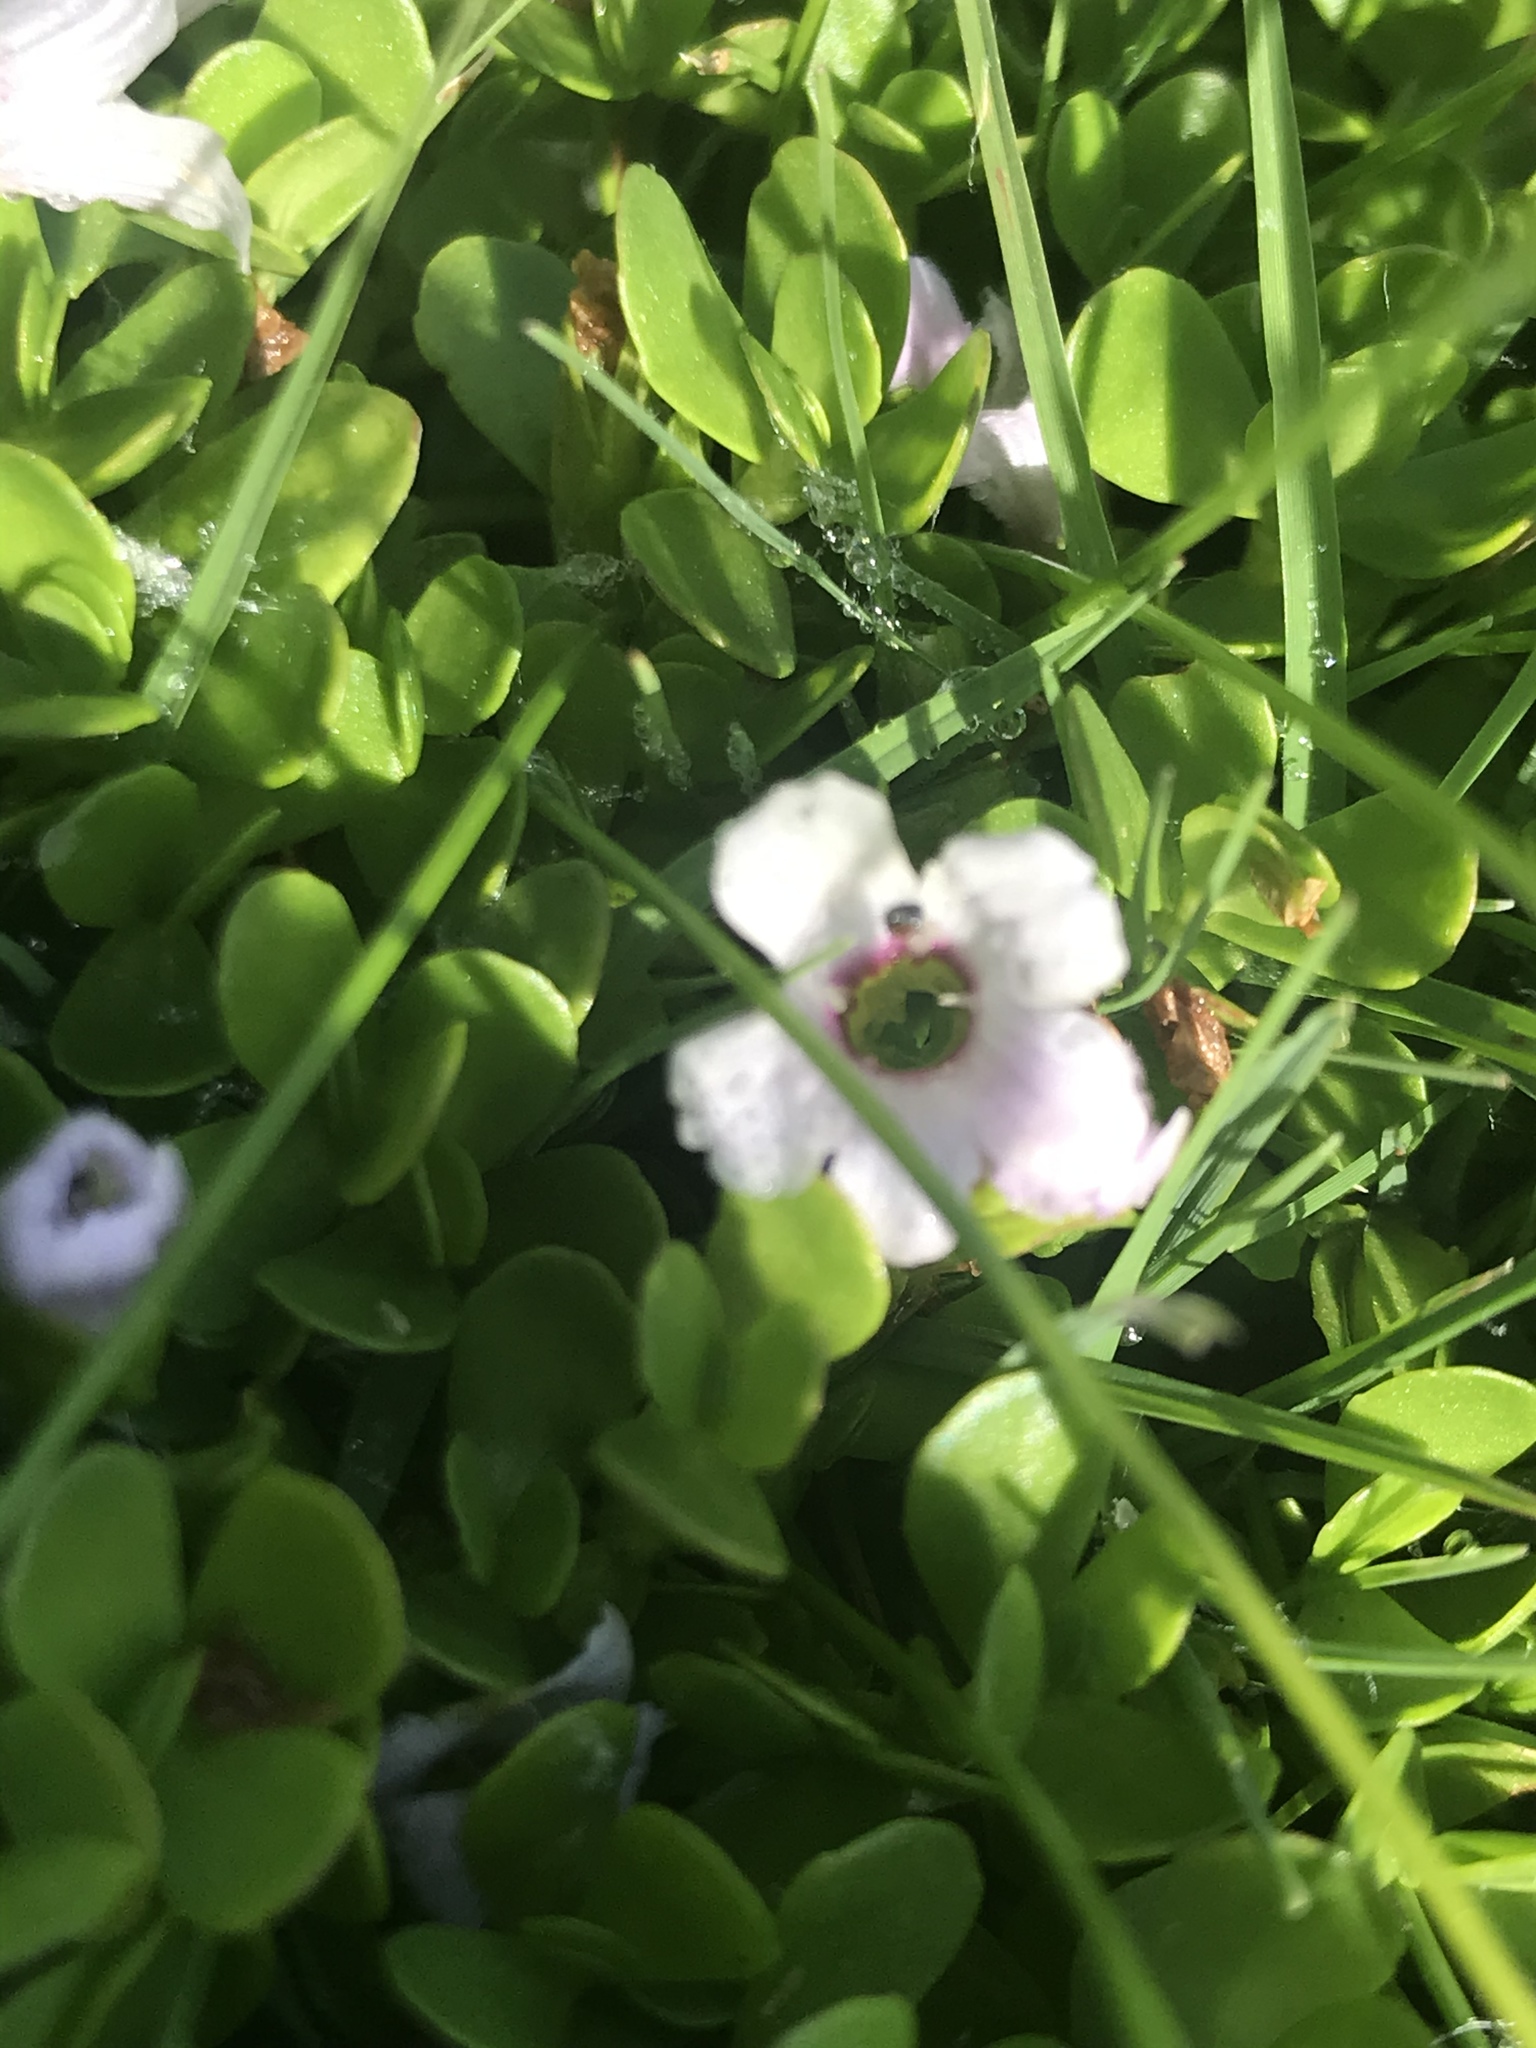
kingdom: Plantae
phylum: Tracheophyta
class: Magnoliopsida
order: Lamiales
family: Plantaginaceae
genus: Bacopa
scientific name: Bacopa monnieri
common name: Indian-pennywort
